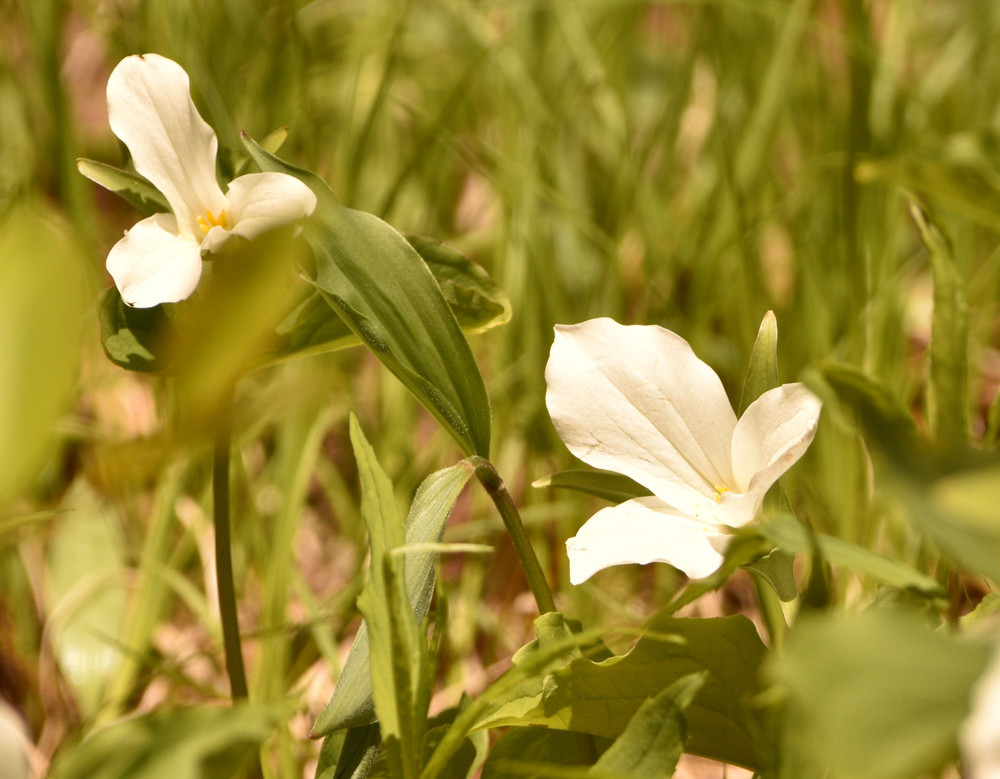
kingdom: Plantae
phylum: Tracheophyta
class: Liliopsida
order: Liliales
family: Melanthiaceae
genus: Trillium
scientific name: Trillium grandiflorum
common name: Great white trillium
